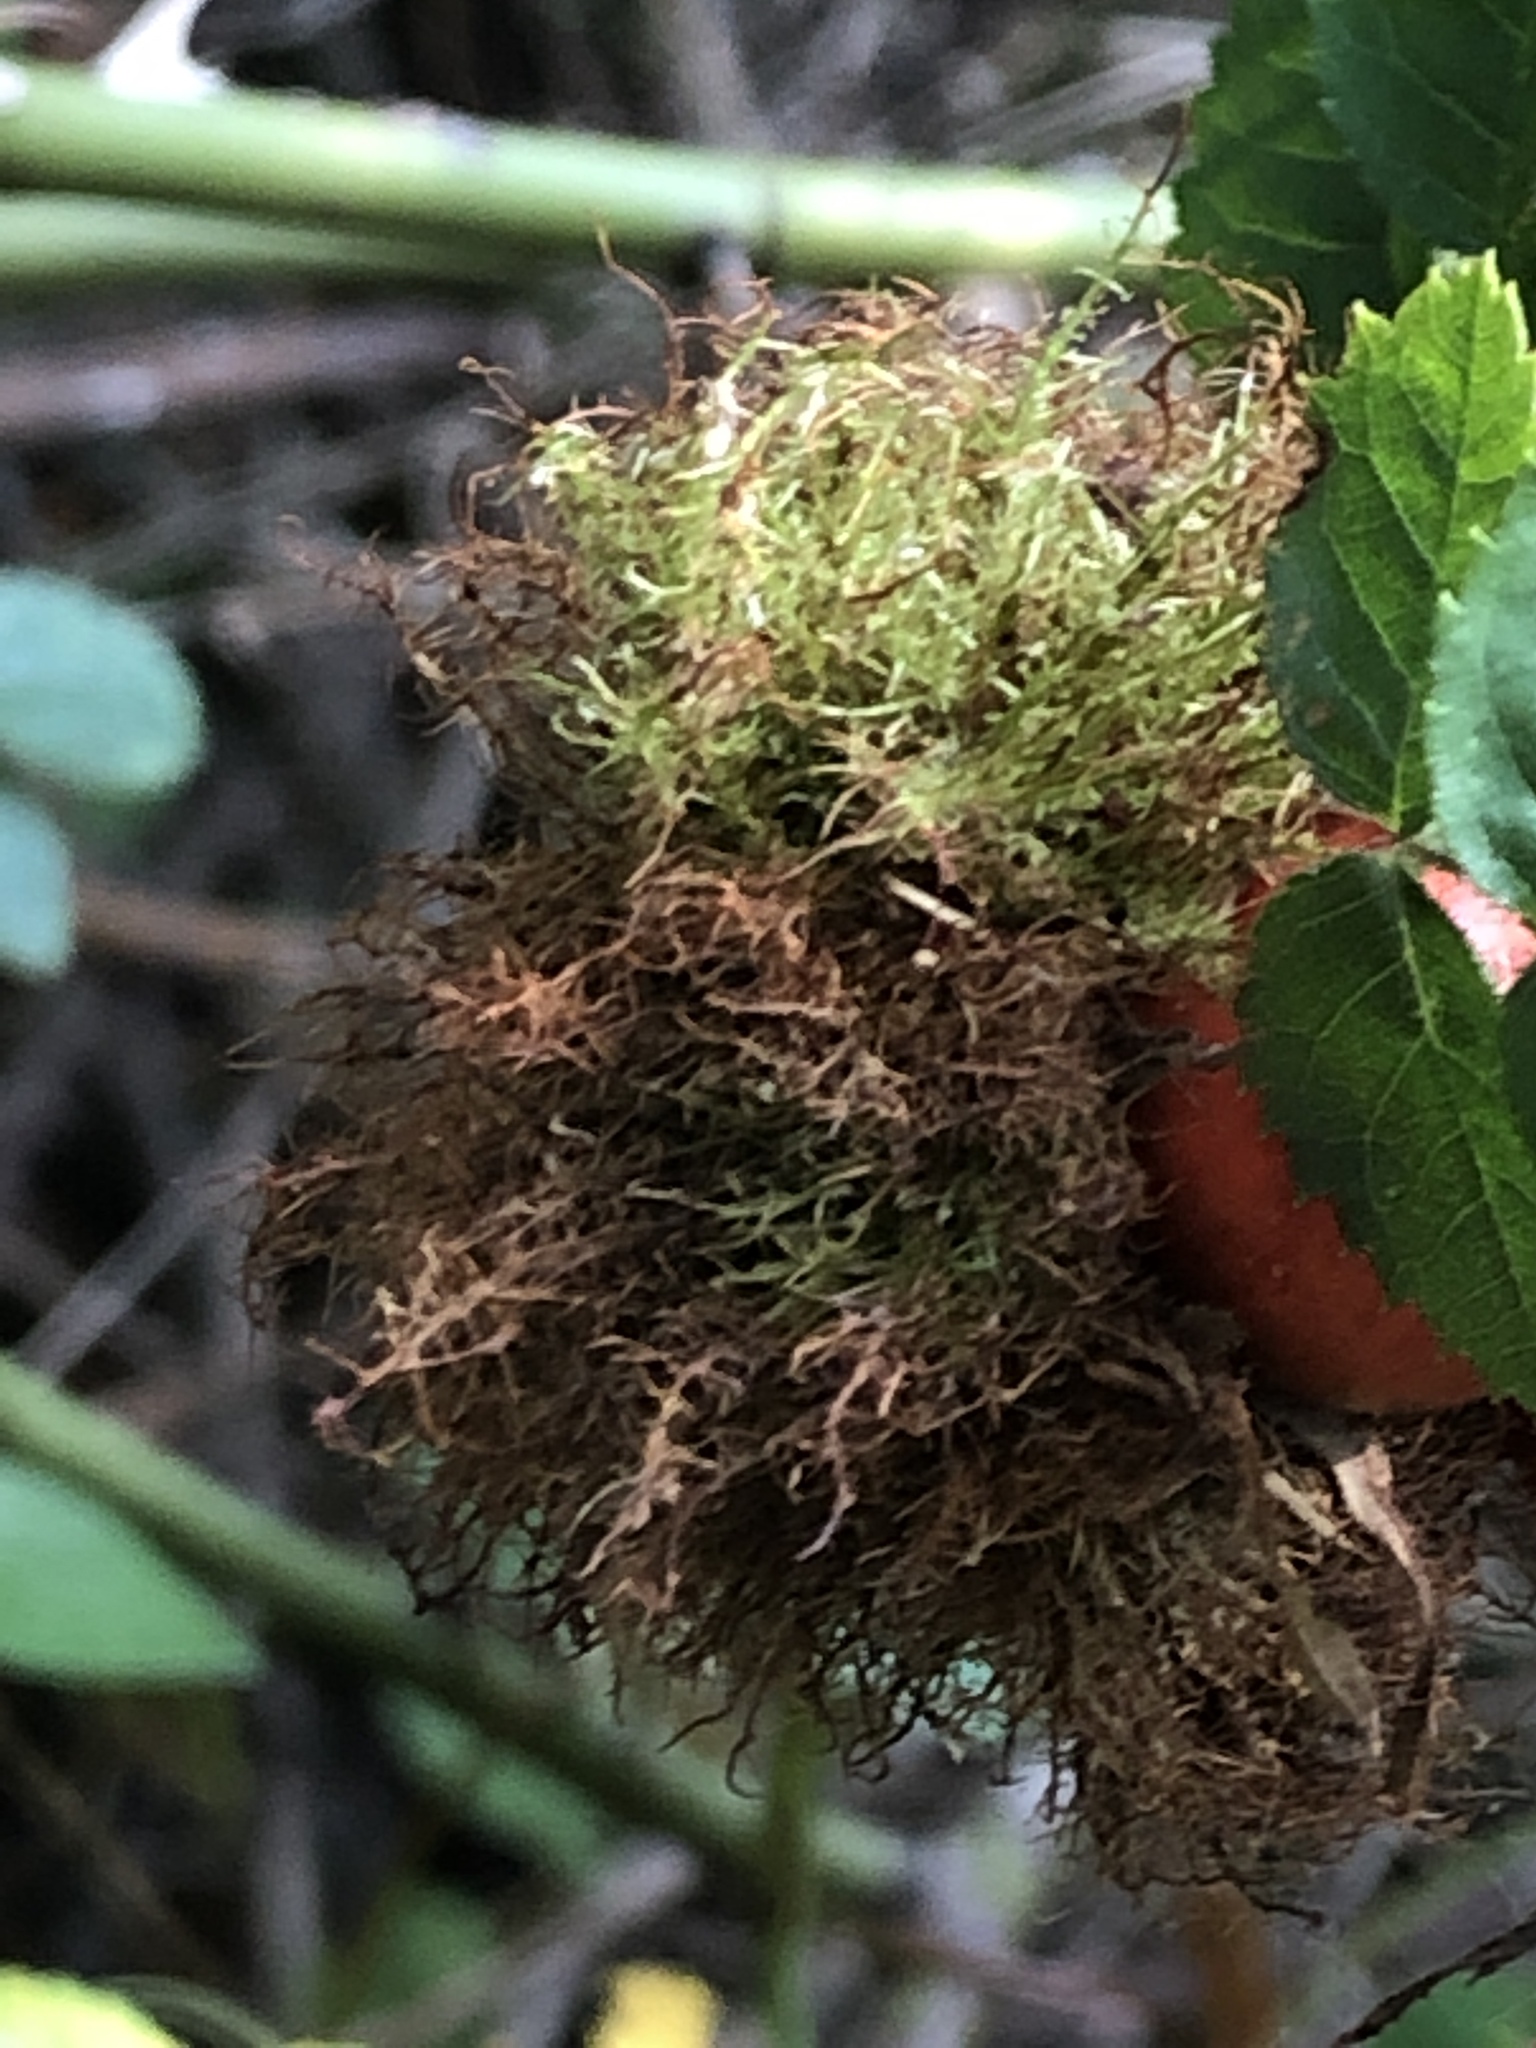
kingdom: Animalia
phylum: Arthropoda
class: Insecta
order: Hymenoptera
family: Cynipidae
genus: Diplolepis
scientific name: Diplolepis rosae
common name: Bedeguar gall
